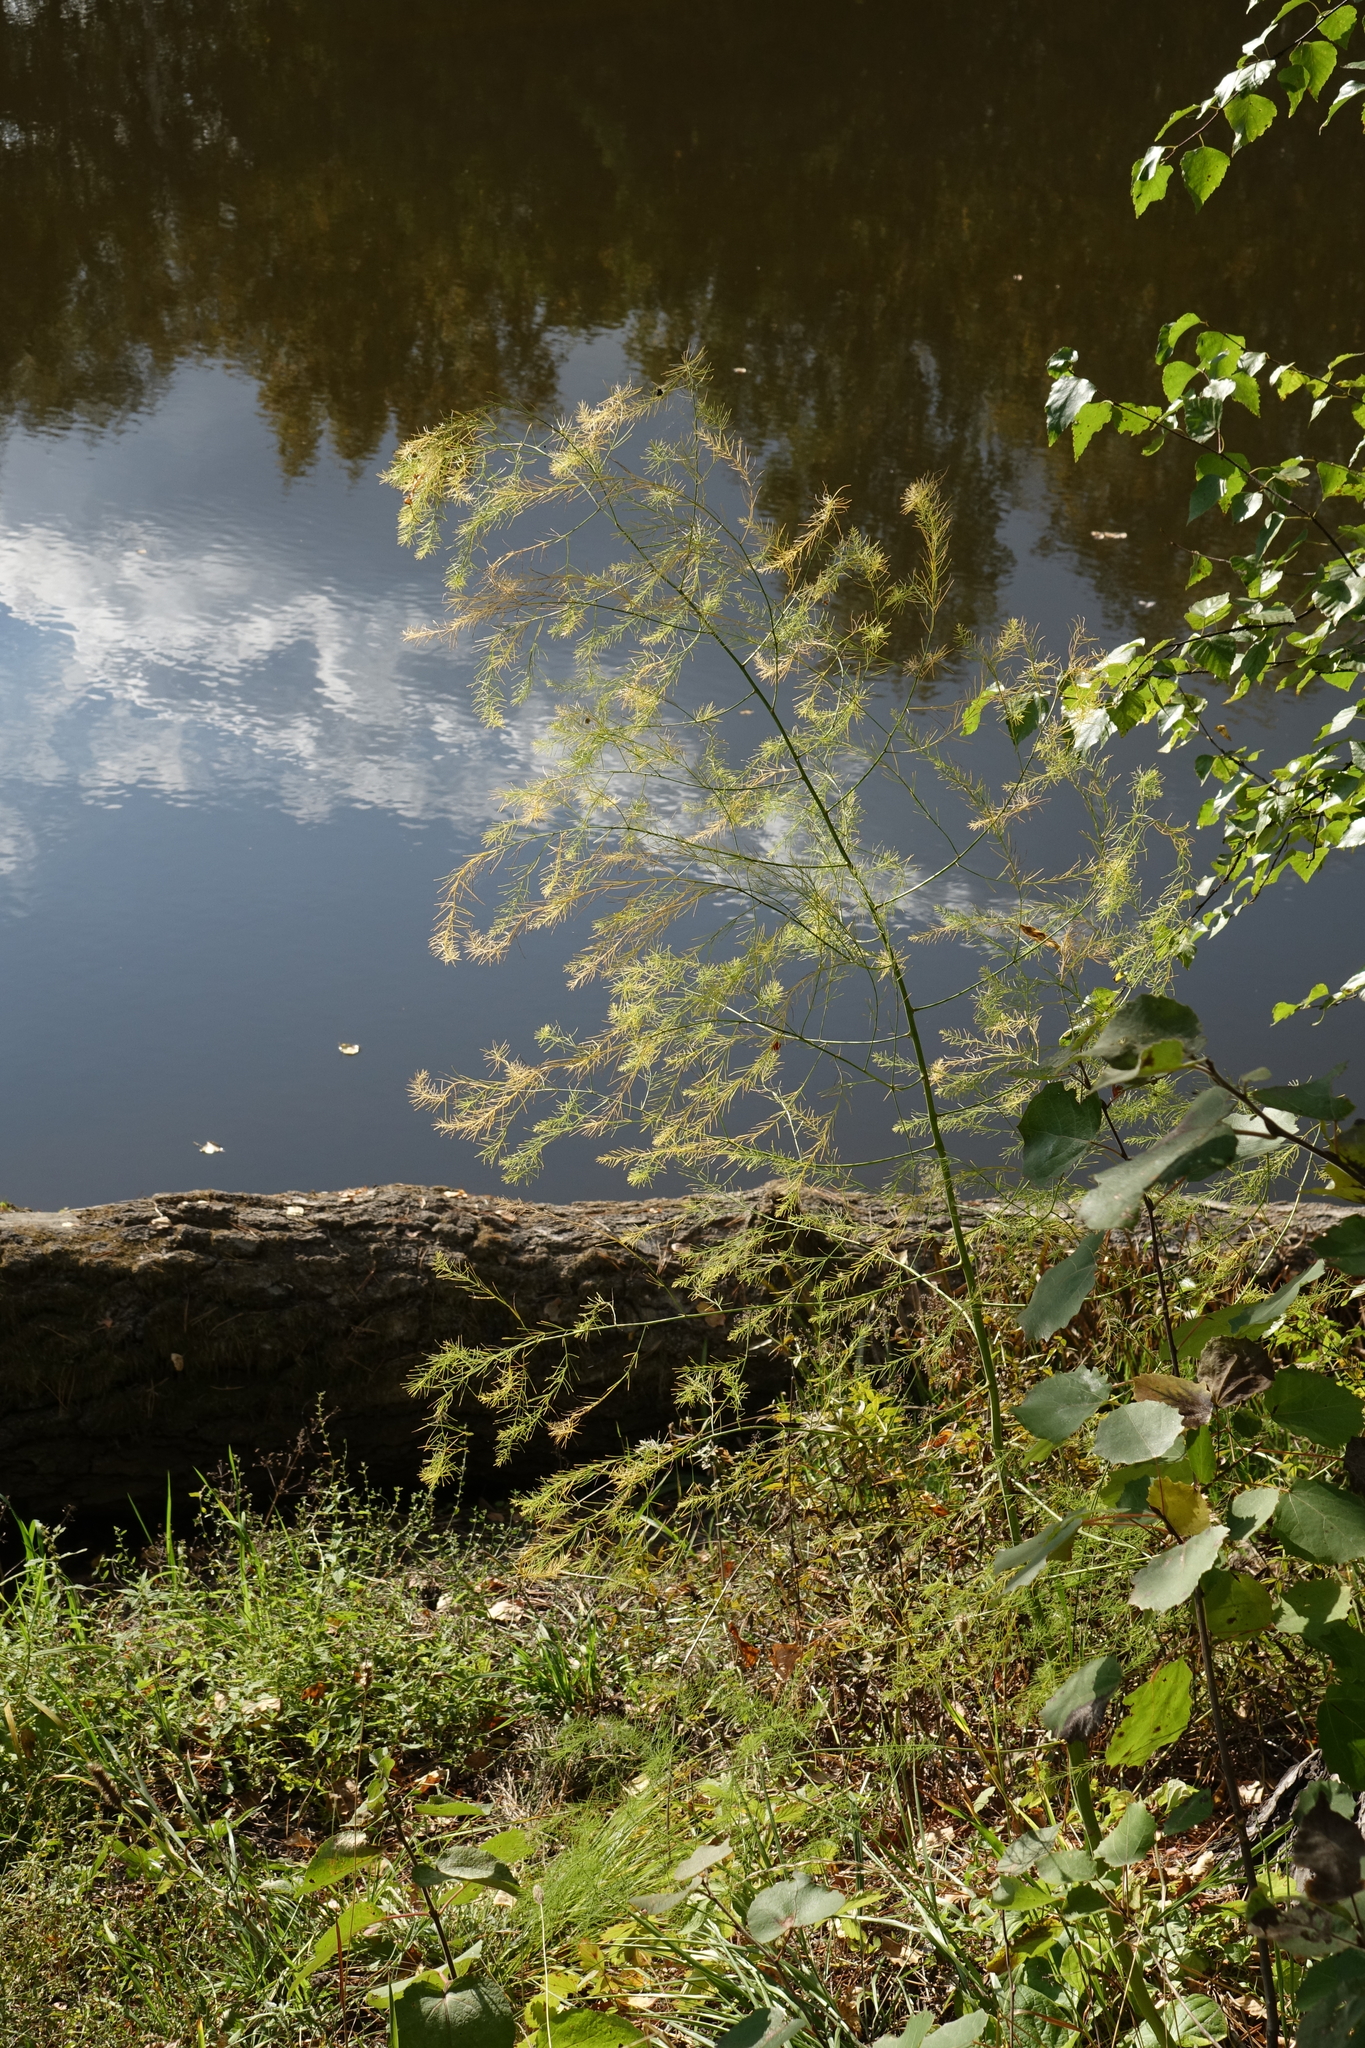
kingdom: Plantae
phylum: Tracheophyta
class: Liliopsida
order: Asparagales
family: Asparagaceae
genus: Asparagus
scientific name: Asparagus officinalis
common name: Garden asparagus
